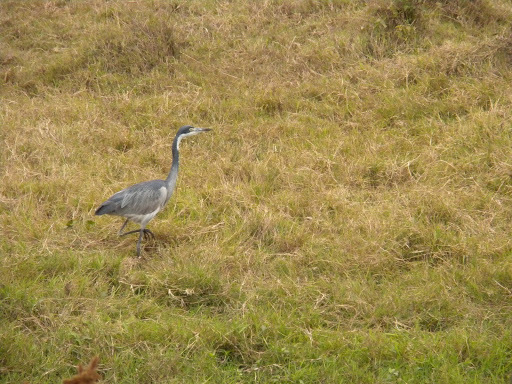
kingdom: Animalia
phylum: Chordata
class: Aves
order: Pelecaniformes
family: Ardeidae
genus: Ardea
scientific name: Ardea melanocephala
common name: Black-headed heron
